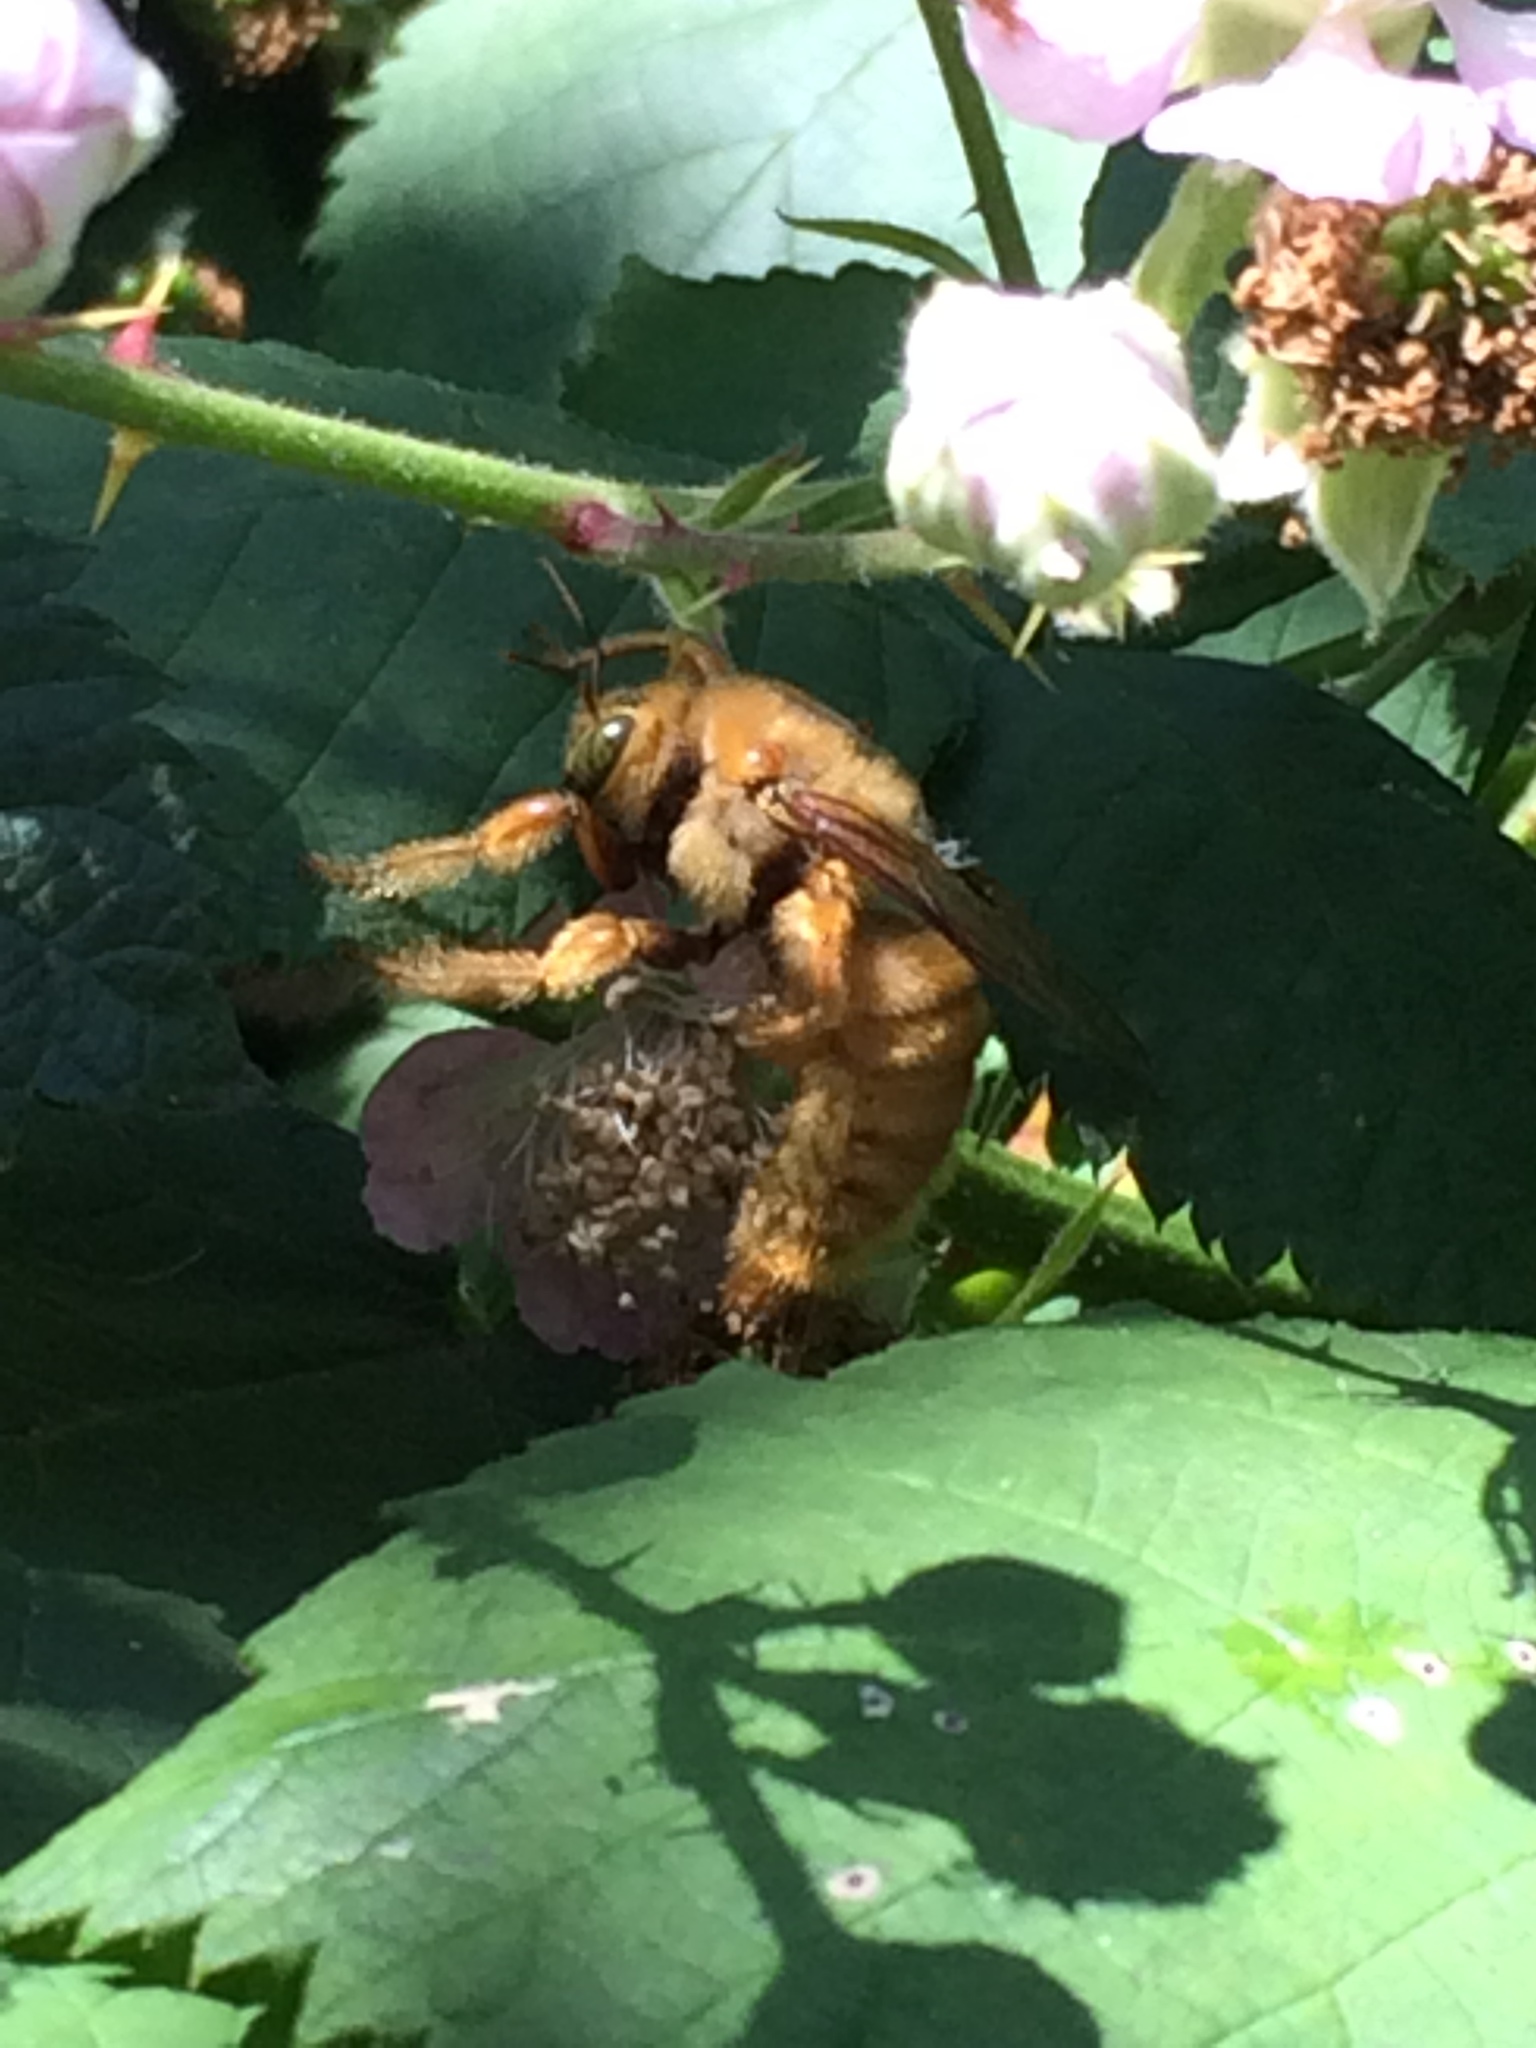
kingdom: Animalia
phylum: Arthropoda
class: Insecta
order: Hymenoptera
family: Apidae
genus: Xylocopa
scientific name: Xylocopa sonorina
